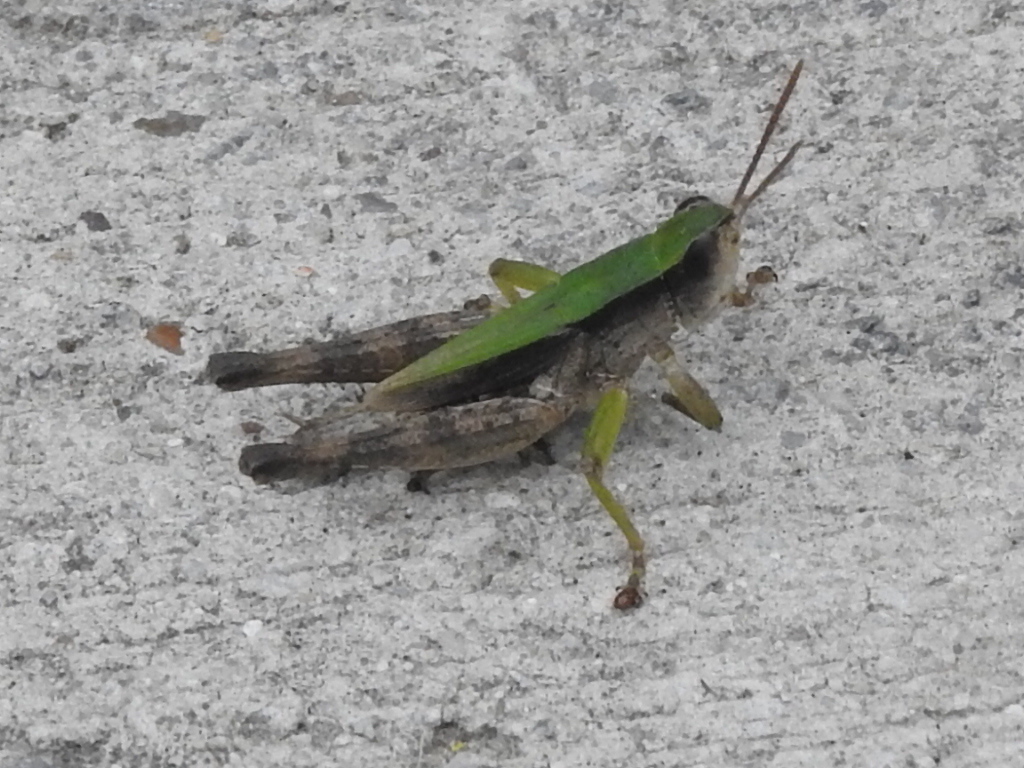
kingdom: Animalia
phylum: Arthropoda
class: Insecta
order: Orthoptera
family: Acrididae
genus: Dichromorpha
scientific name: Dichromorpha viridis
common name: Short-winged green grasshopper
